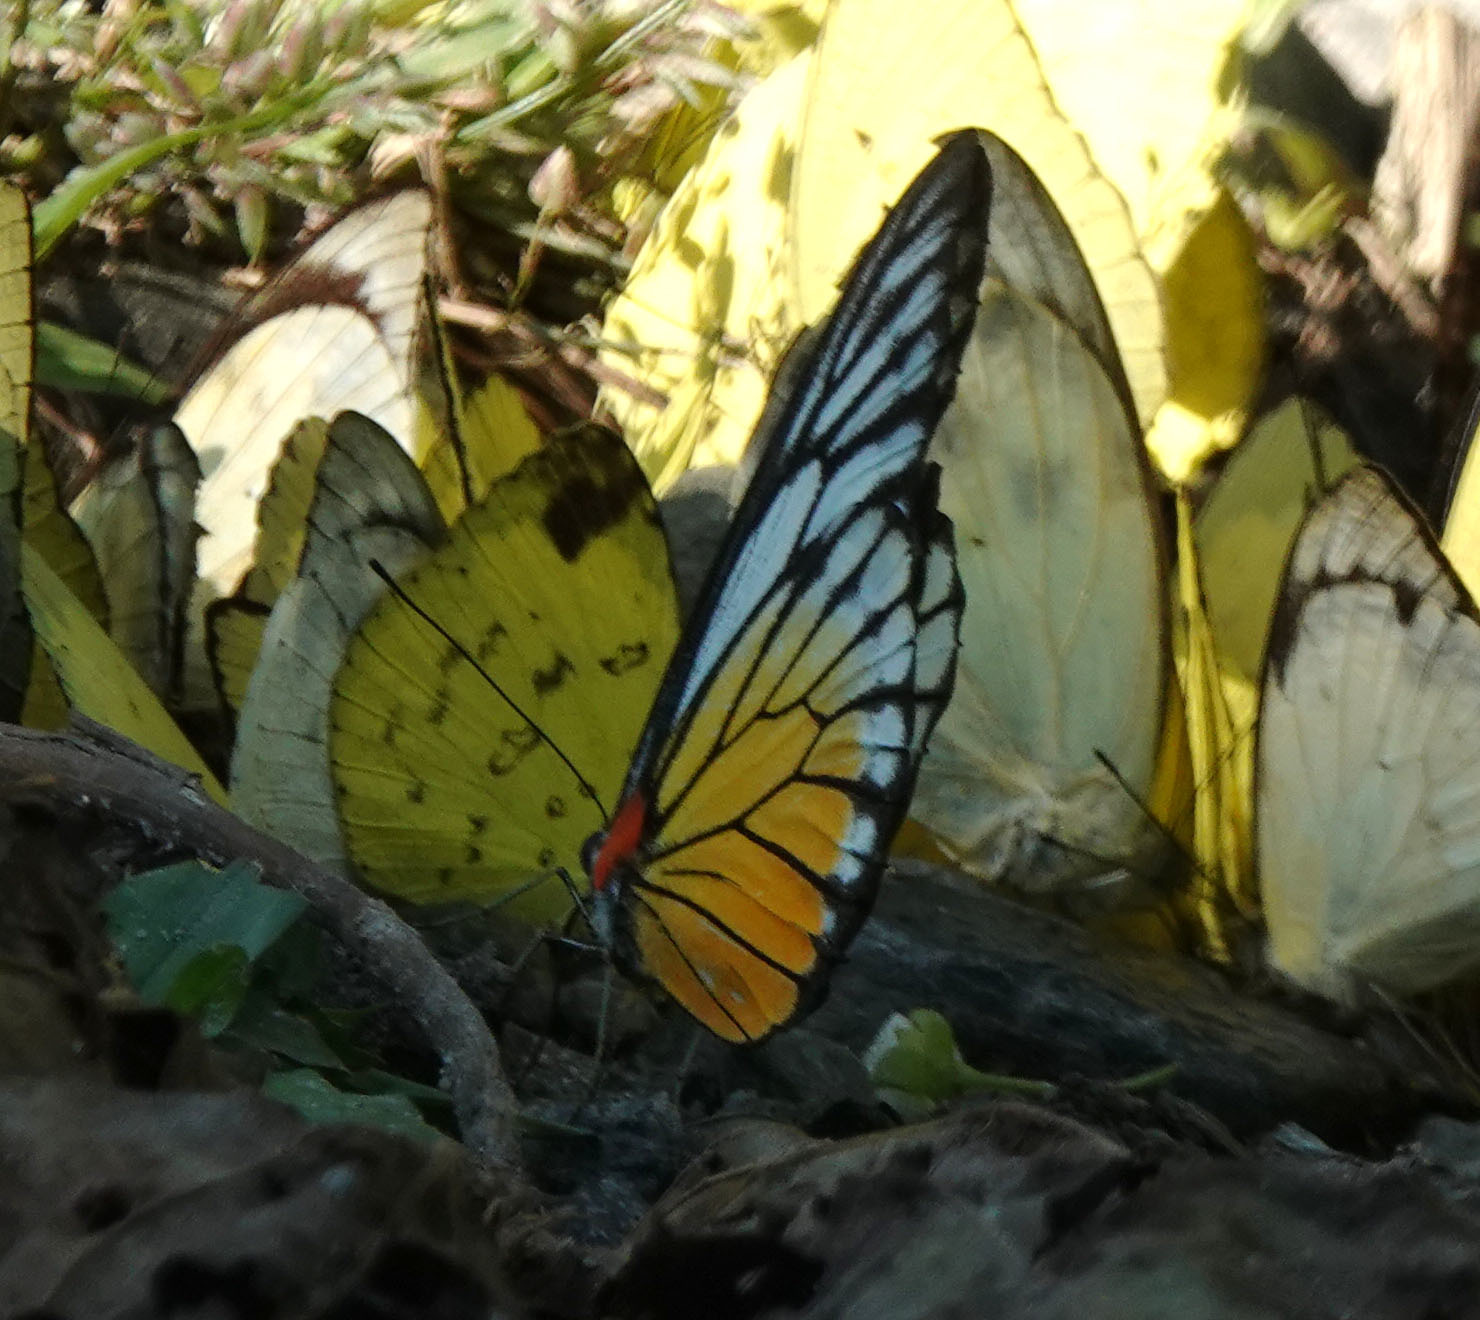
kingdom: Animalia
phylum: Arthropoda
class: Insecta
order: Lepidoptera
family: Pieridae
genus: Prioneris
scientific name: Prioneris philonome
